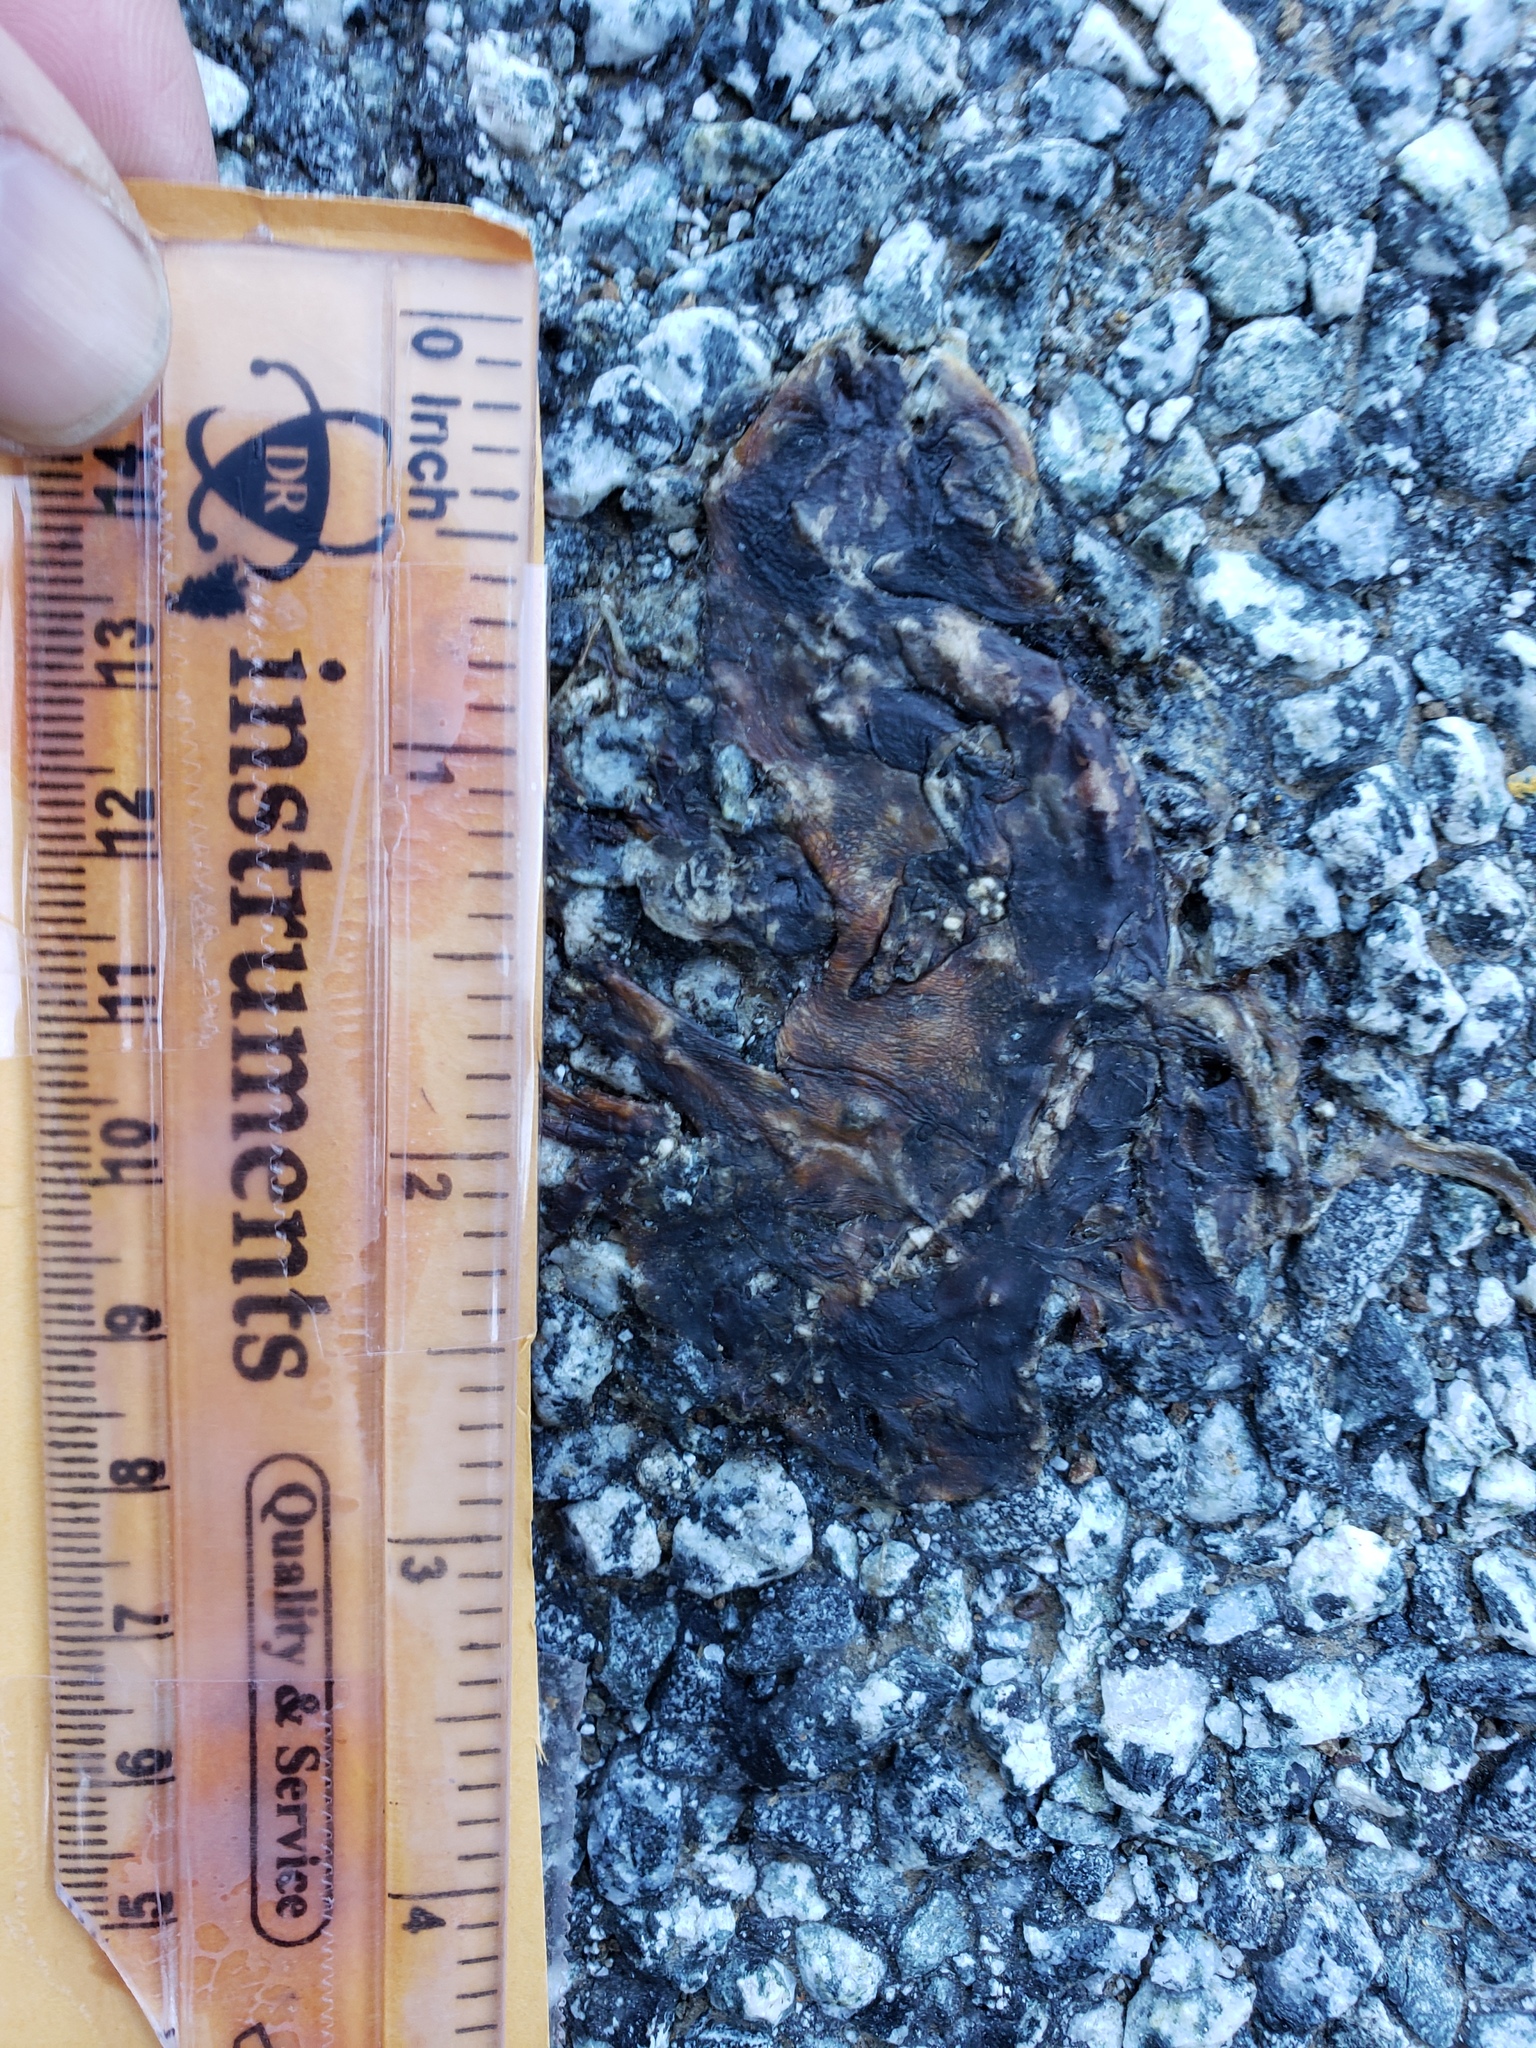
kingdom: Animalia
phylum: Chordata
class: Amphibia
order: Caudata
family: Salamandridae
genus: Taricha
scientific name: Taricha
